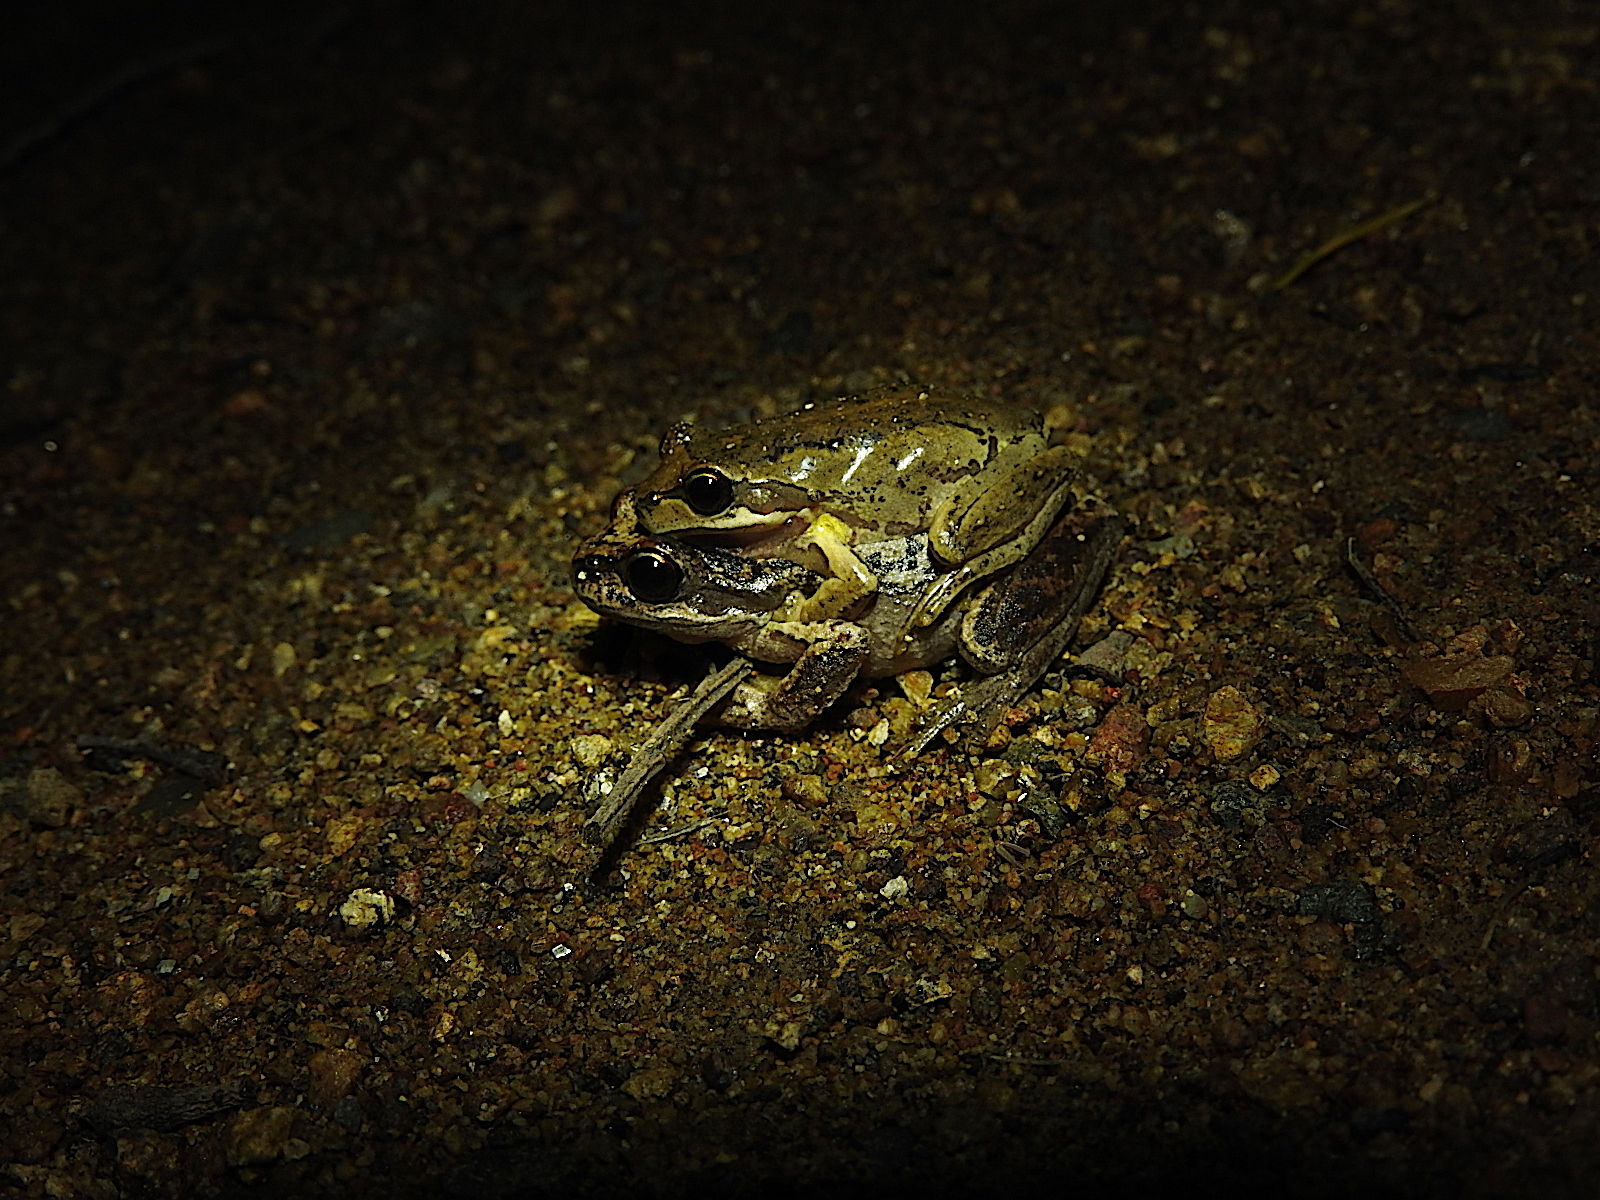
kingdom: Animalia
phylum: Chordata
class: Amphibia
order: Anura
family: Pelodryadidae
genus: Litoria
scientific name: Litoria ewingii
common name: Southern brown tree frog
